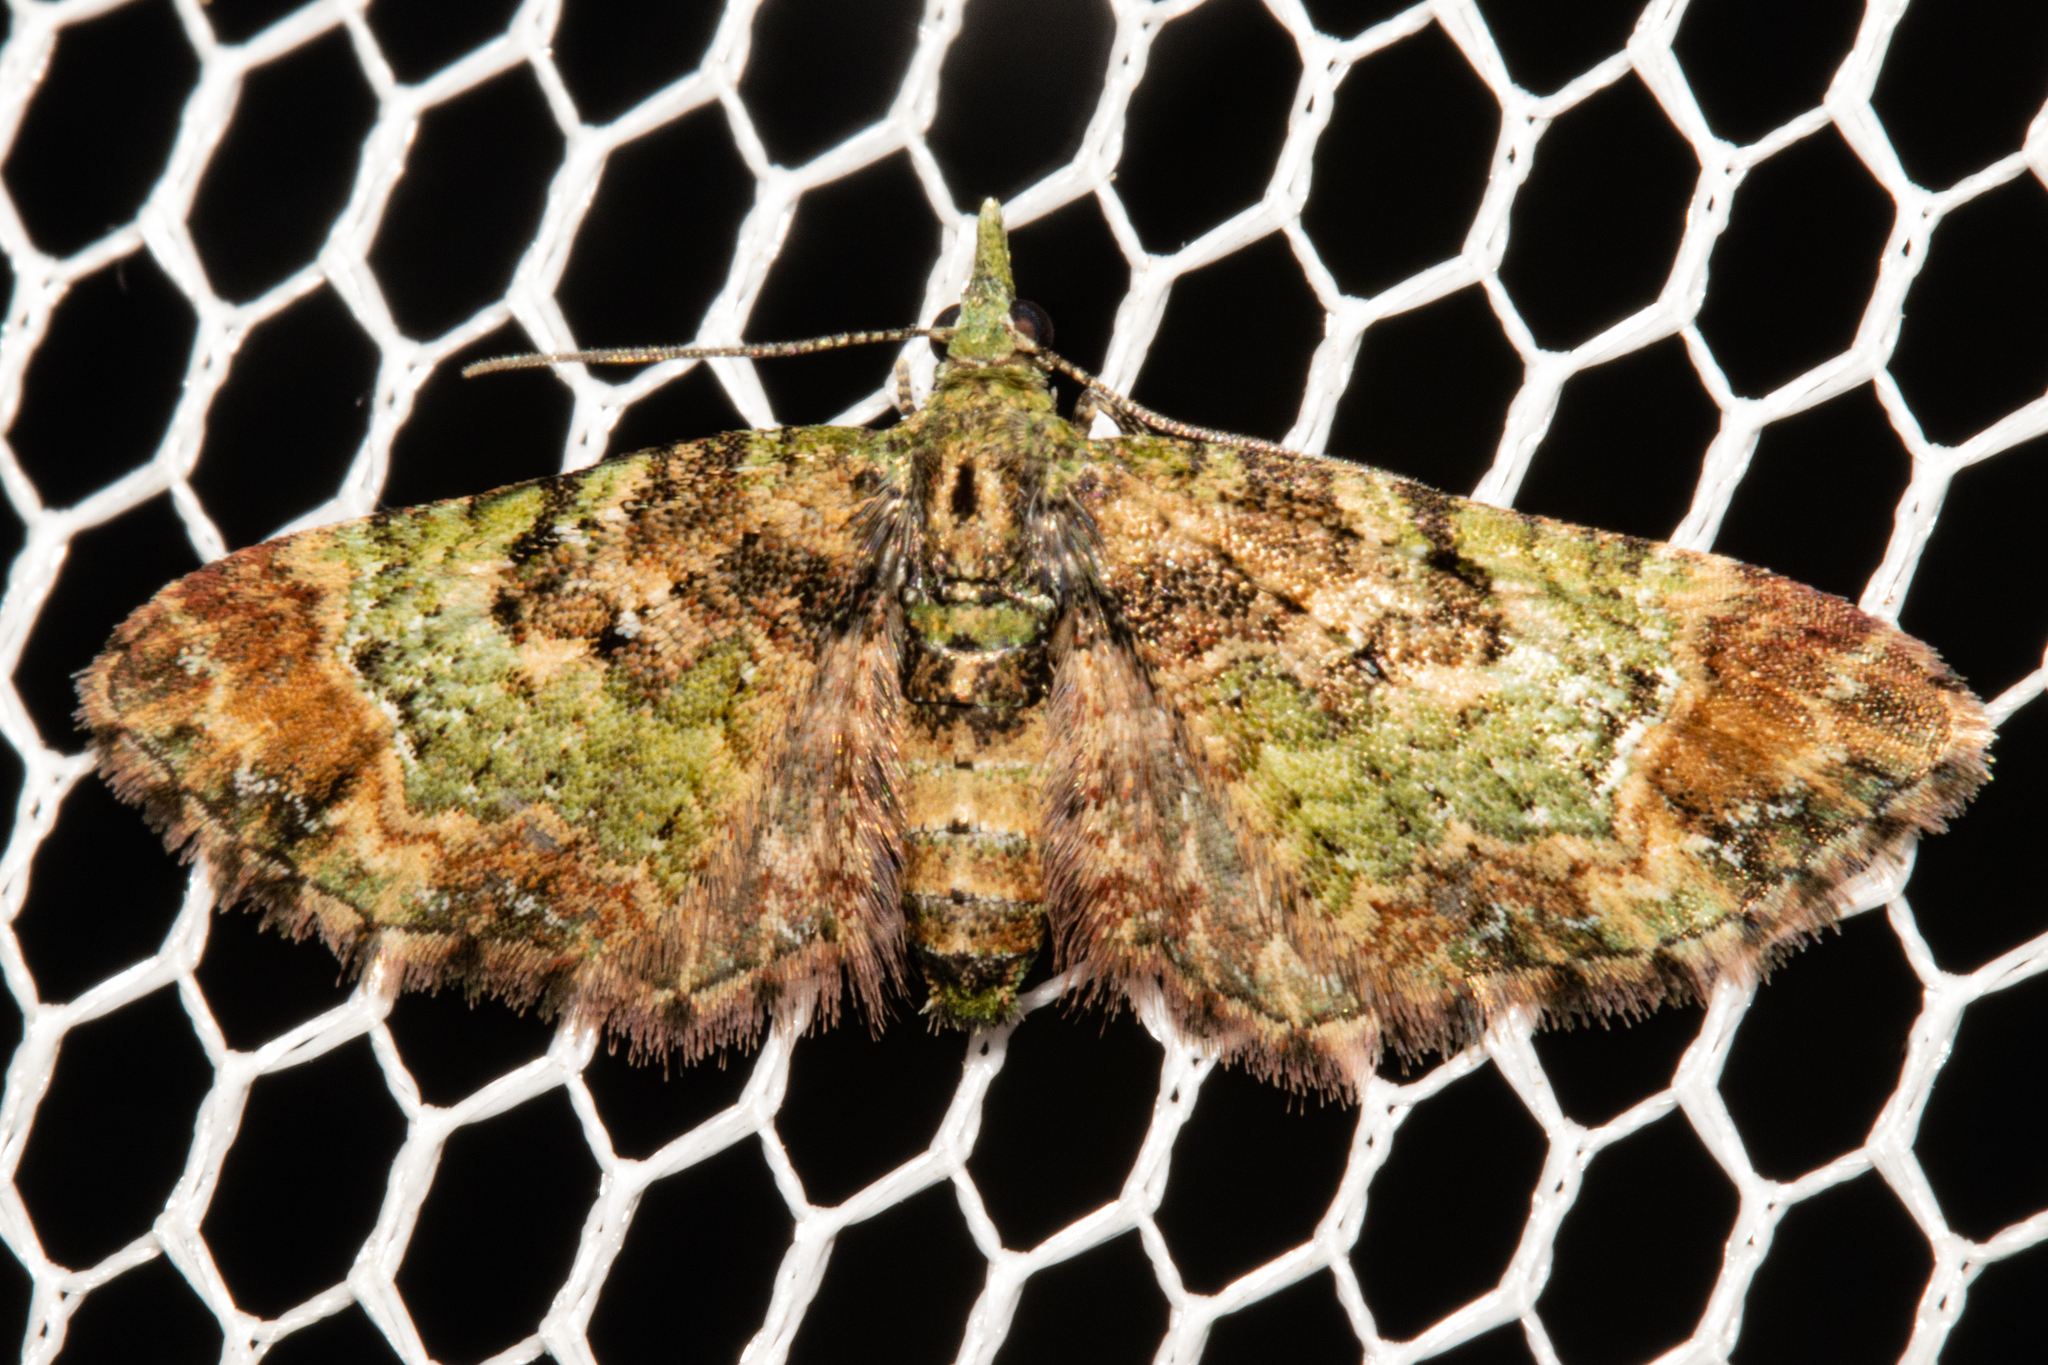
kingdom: Animalia
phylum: Arthropoda
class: Insecta
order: Lepidoptera
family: Geometridae
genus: Pasiphila
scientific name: Pasiphila sandycias
